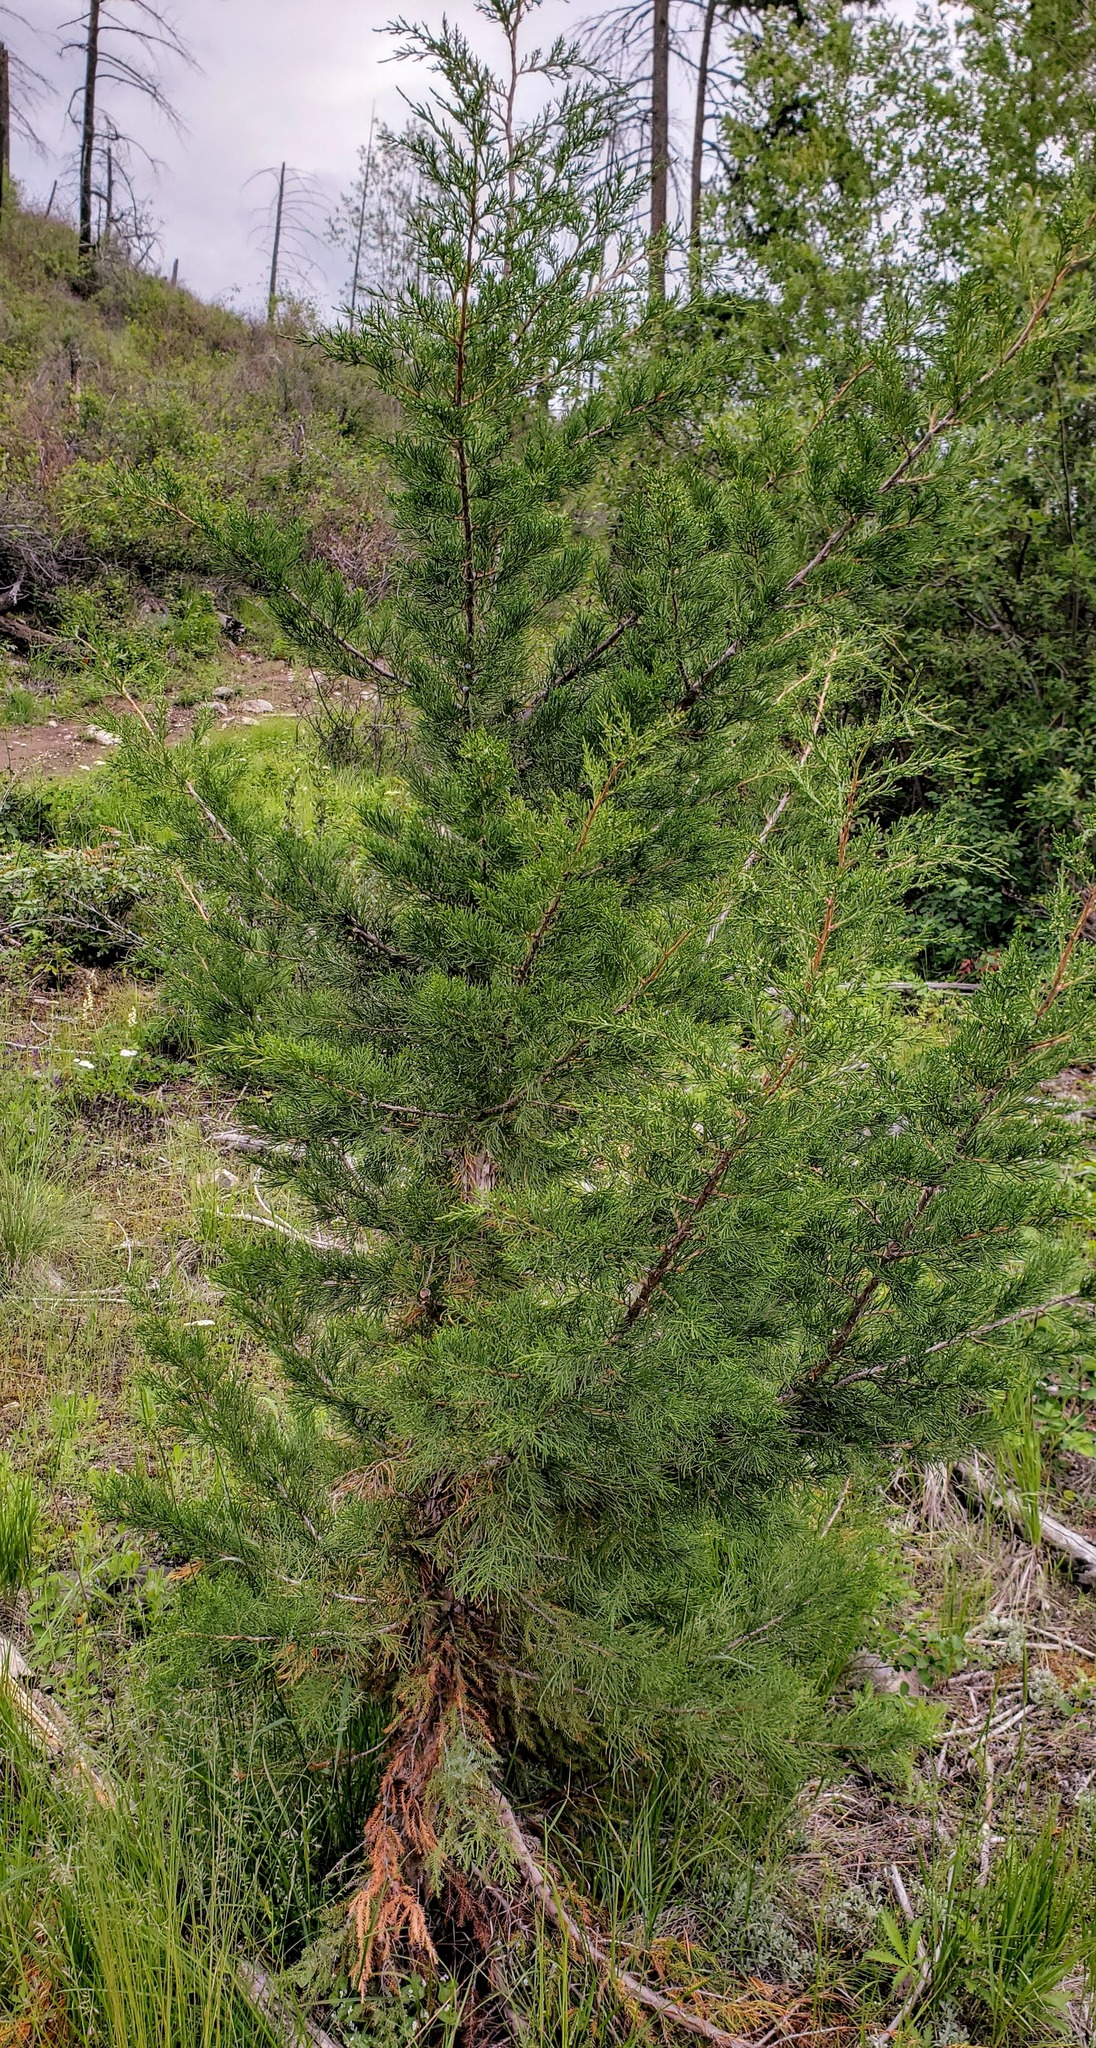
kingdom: Plantae
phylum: Tracheophyta
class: Pinopsida
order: Pinales
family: Cupressaceae
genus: Juniperus
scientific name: Juniperus scopulorum
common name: Rocky mountain juniper
